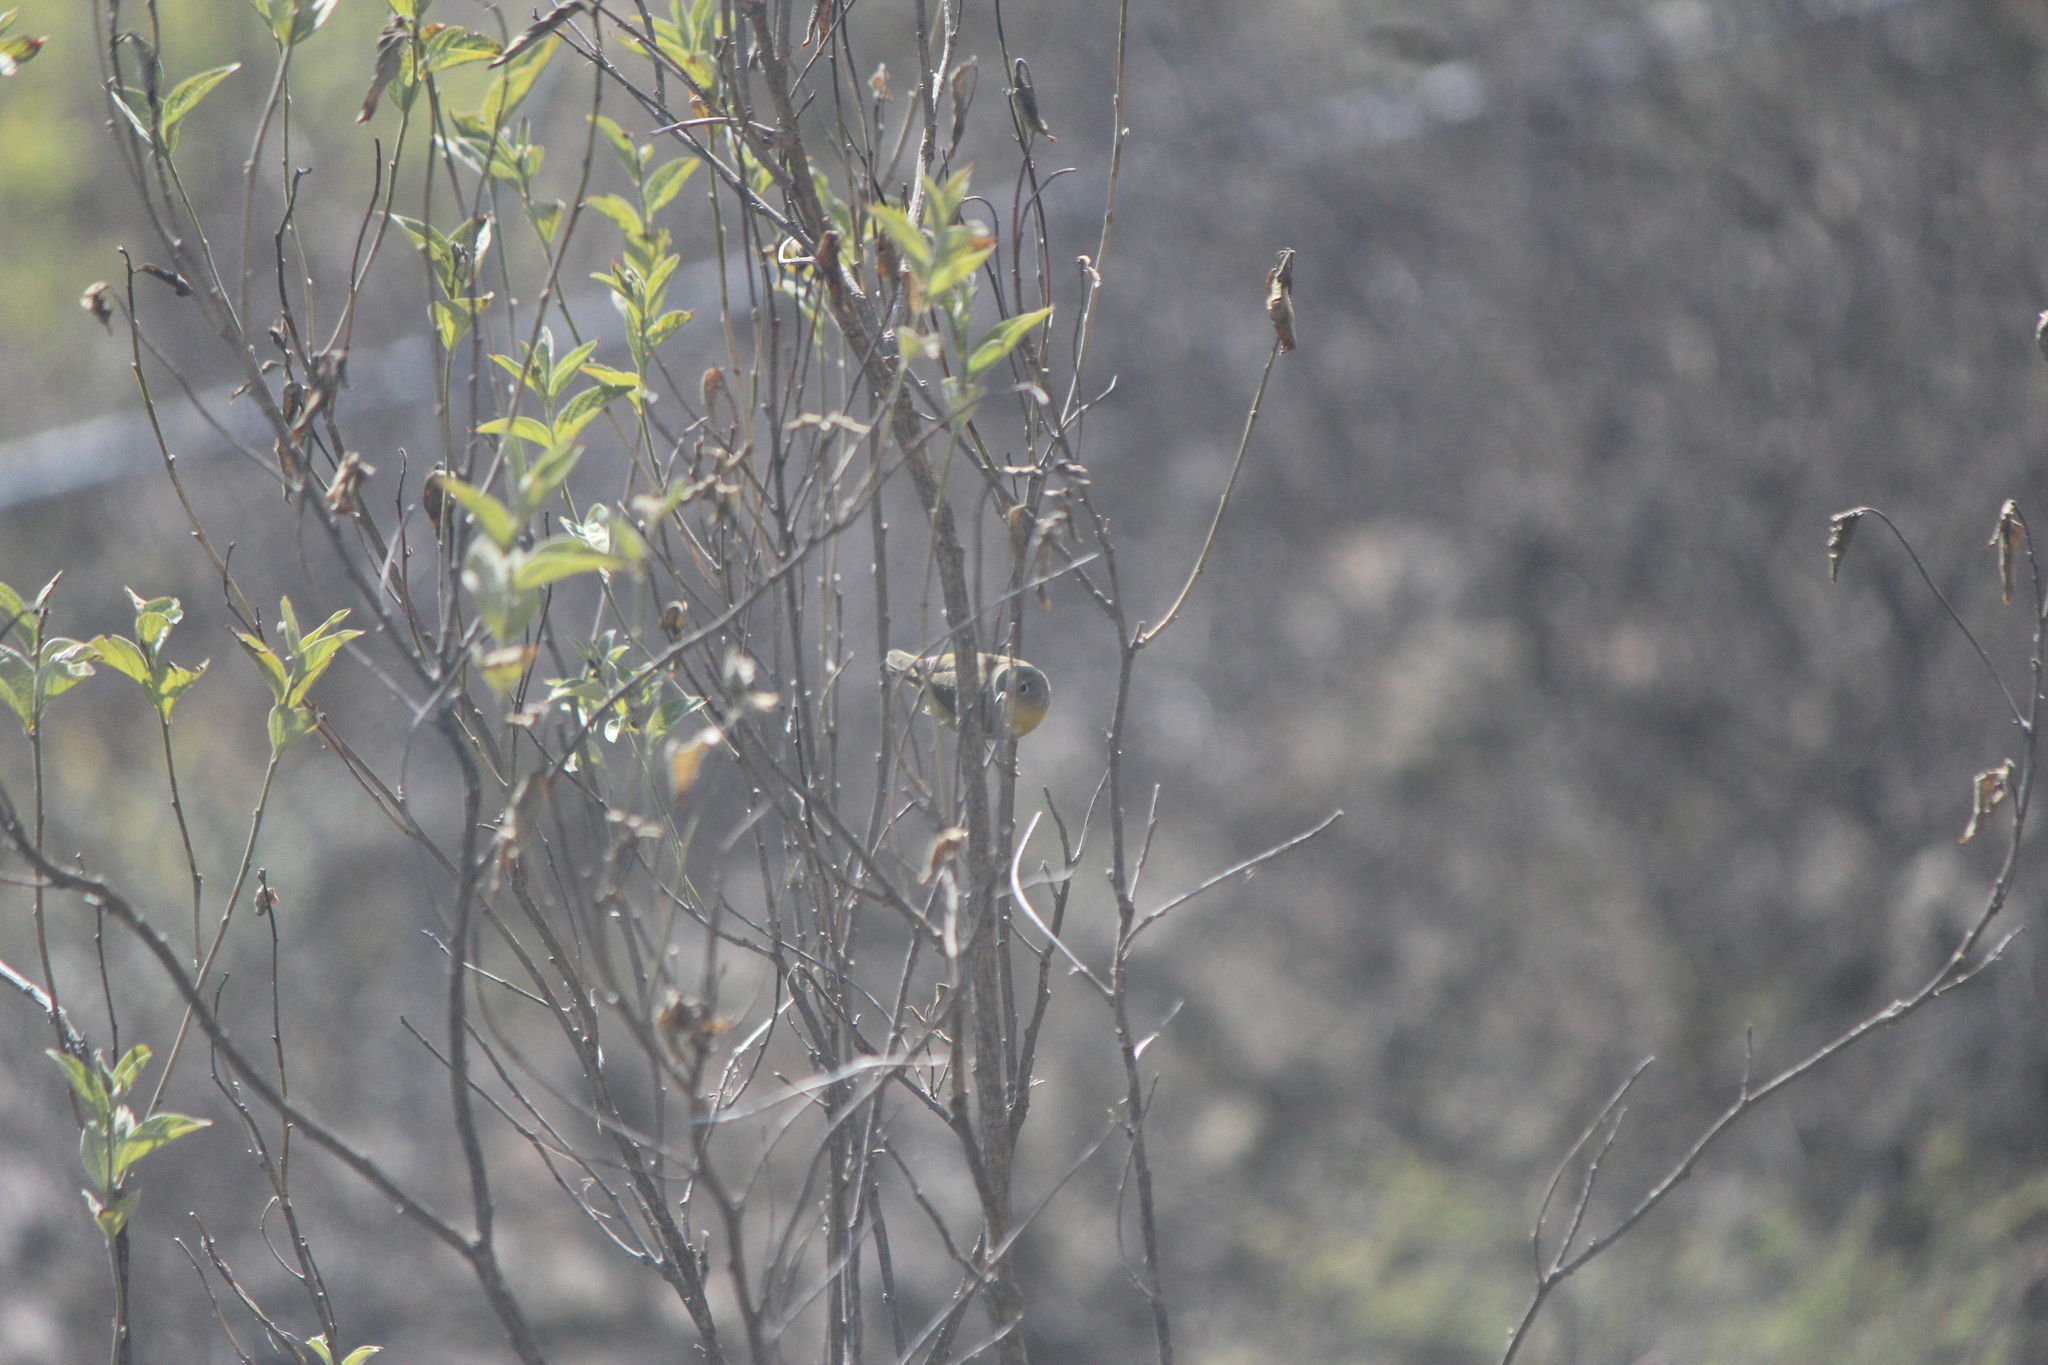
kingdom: Animalia
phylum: Chordata
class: Aves
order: Passeriformes
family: Parulidae
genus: Leiothlypis
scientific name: Leiothlypis ruficapilla
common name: Nashville warbler
